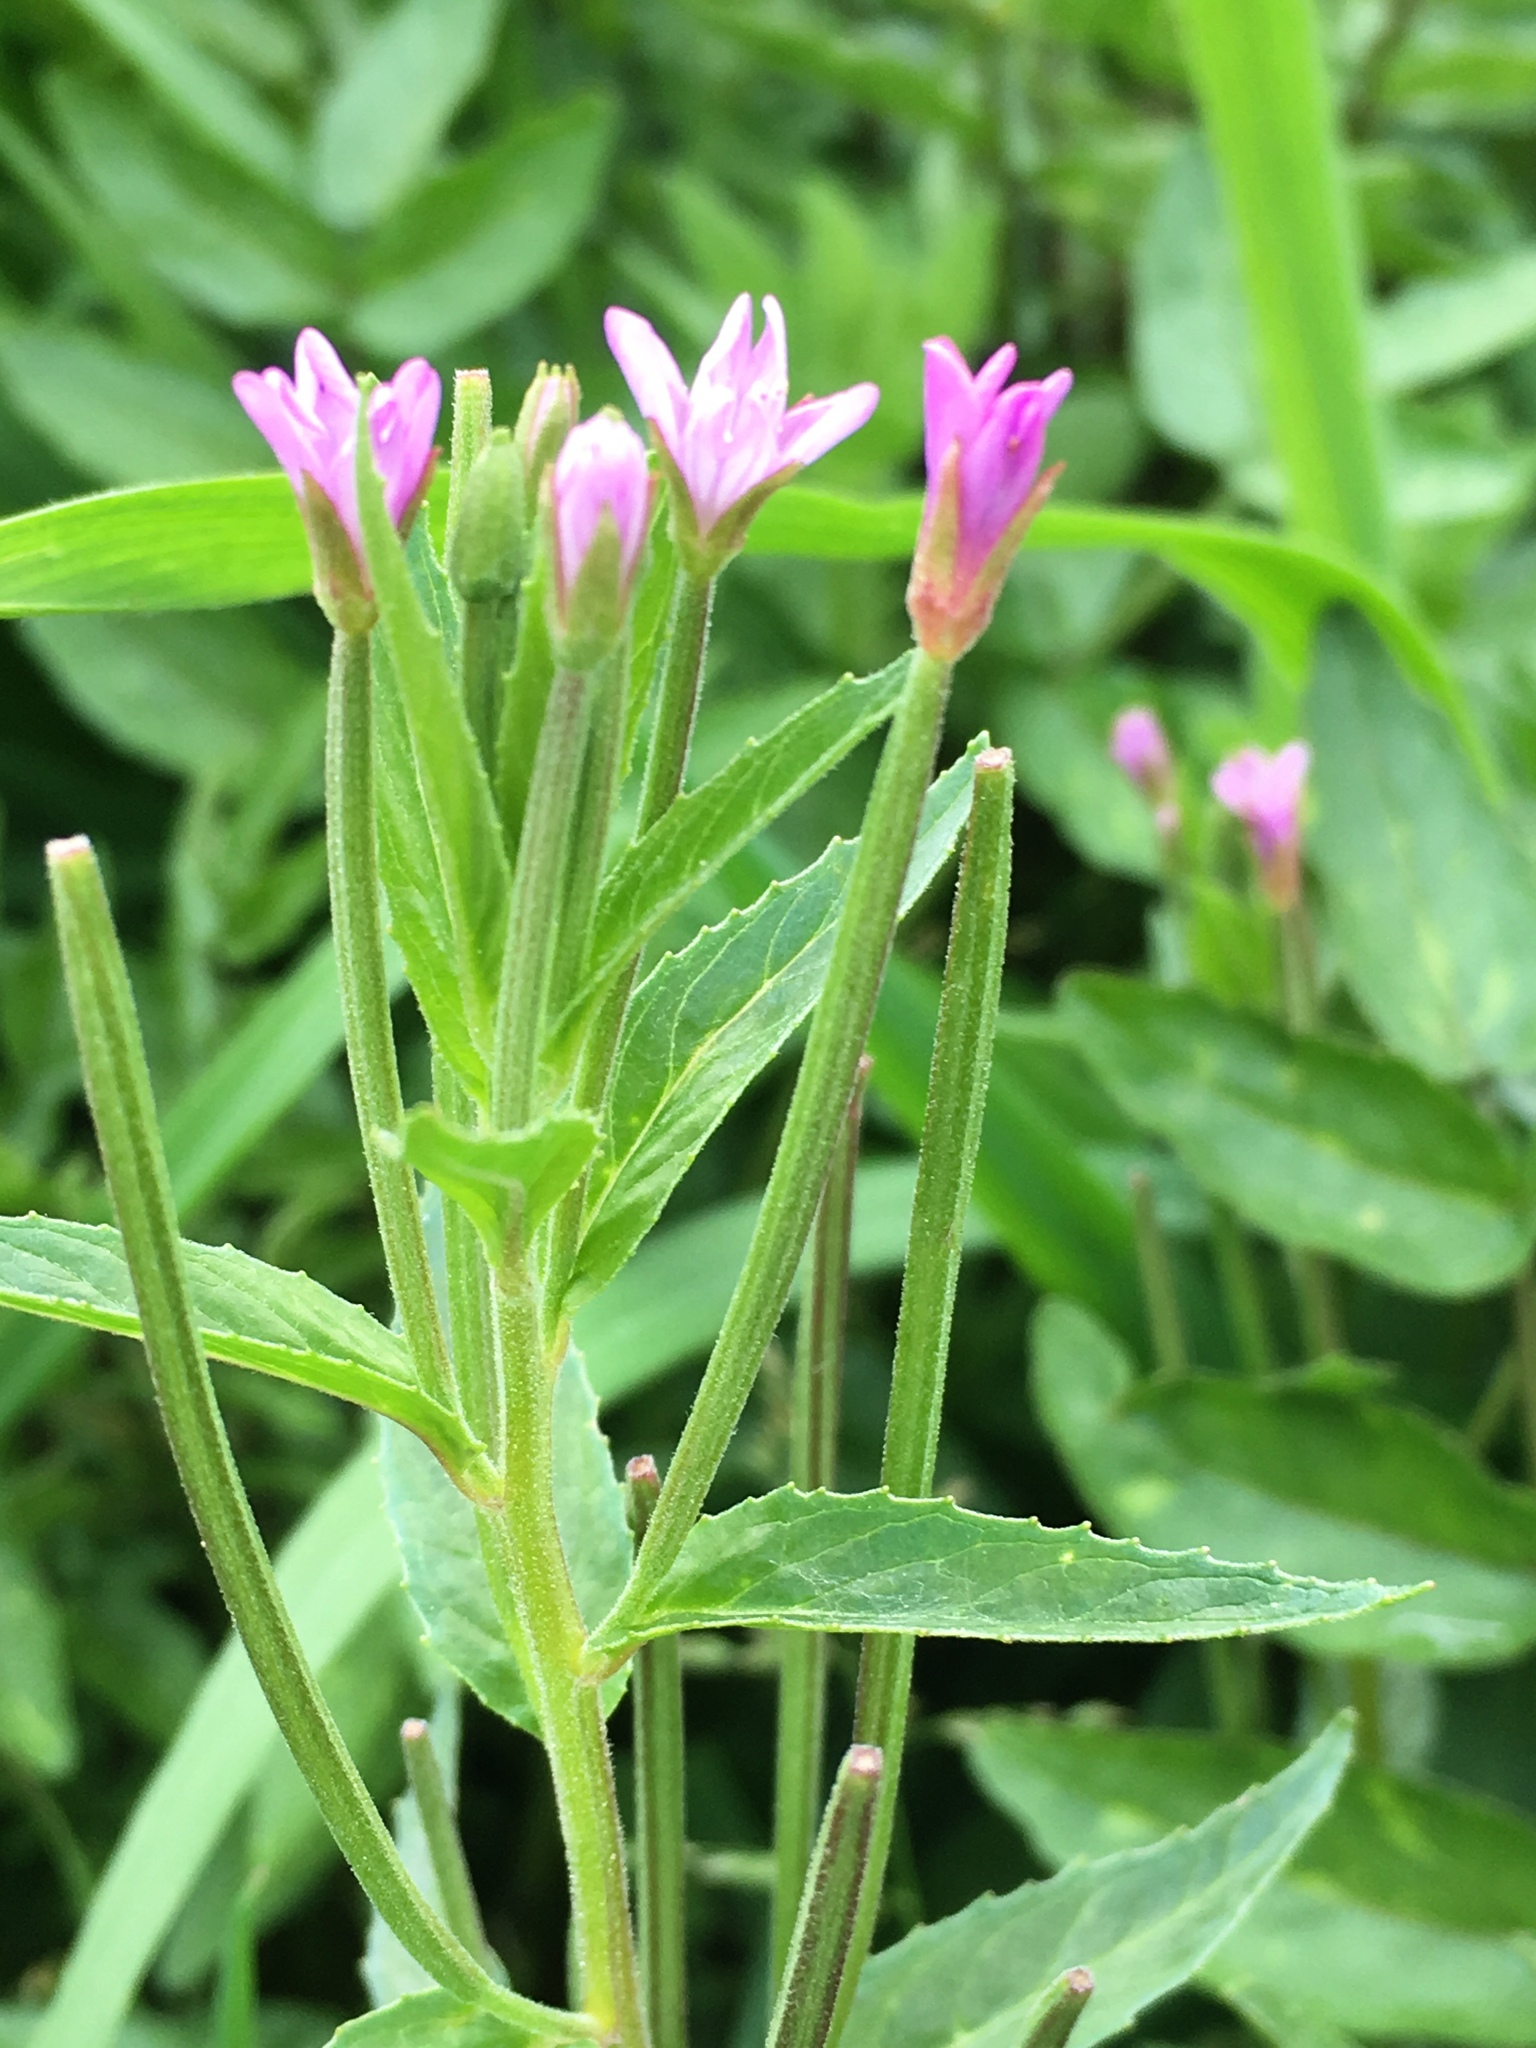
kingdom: Plantae
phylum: Tracheophyta
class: Magnoliopsida
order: Myrtales
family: Onagraceae
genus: Epilobium
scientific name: Epilobium ciliatum
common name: American willowherb
